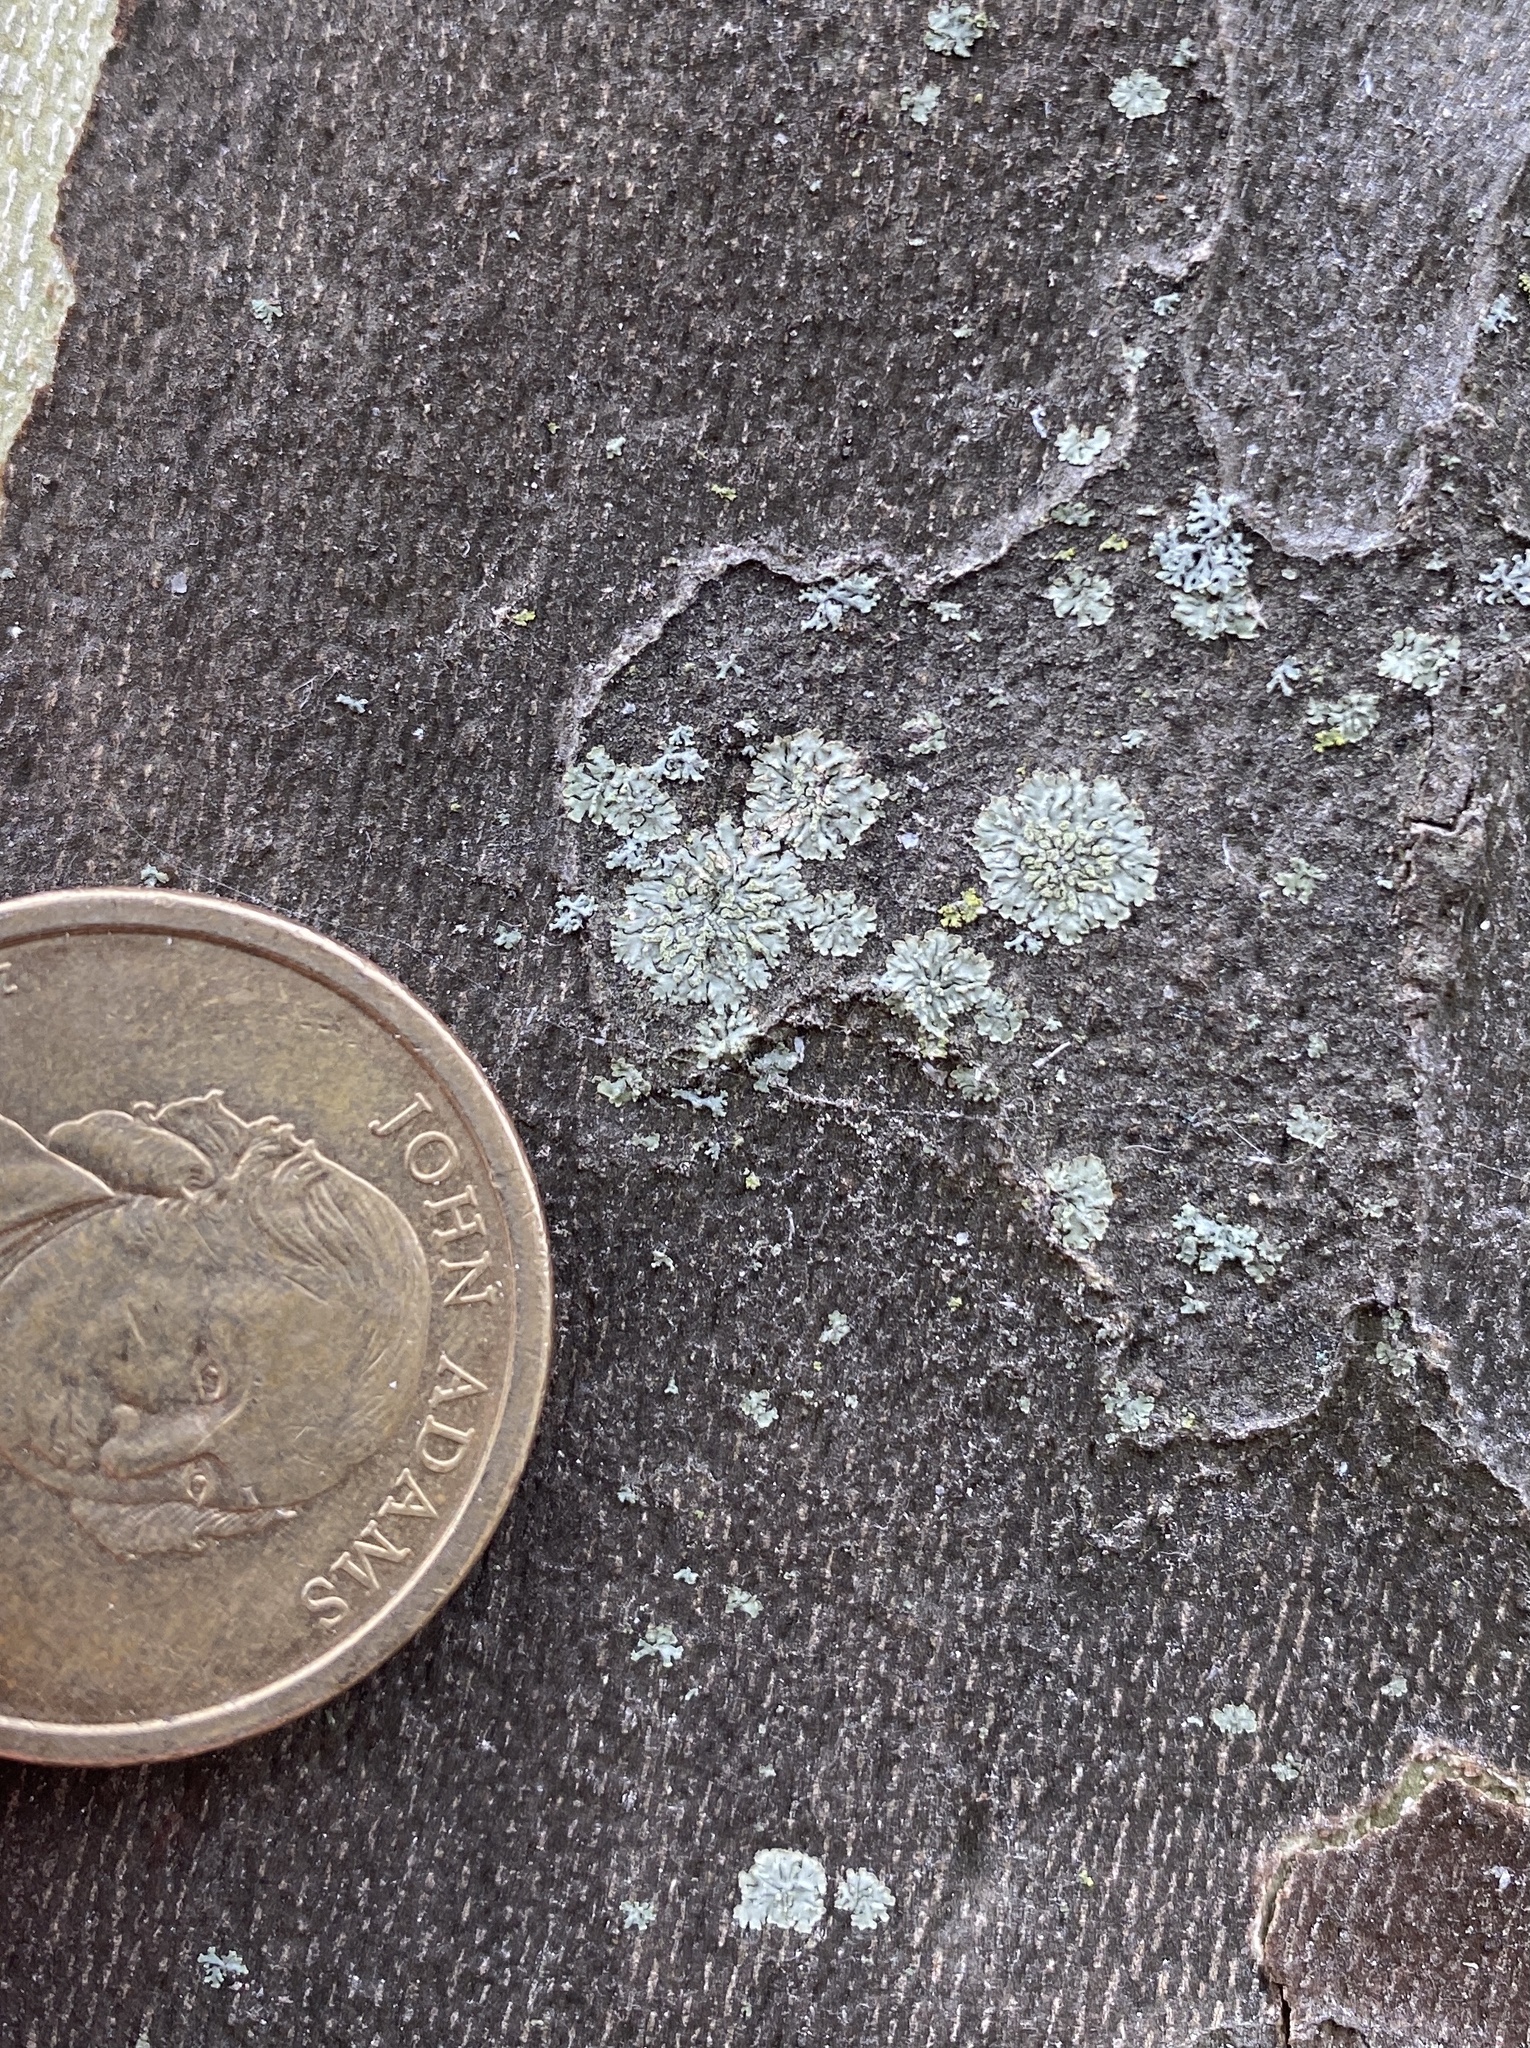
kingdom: Fungi
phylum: Ascomycota
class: Lecanoromycetes
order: Caliciales
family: Physciaceae
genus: Hyperphyscia
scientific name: Hyperphyscia adglutinata
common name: Grainy shadow-crust lichen
